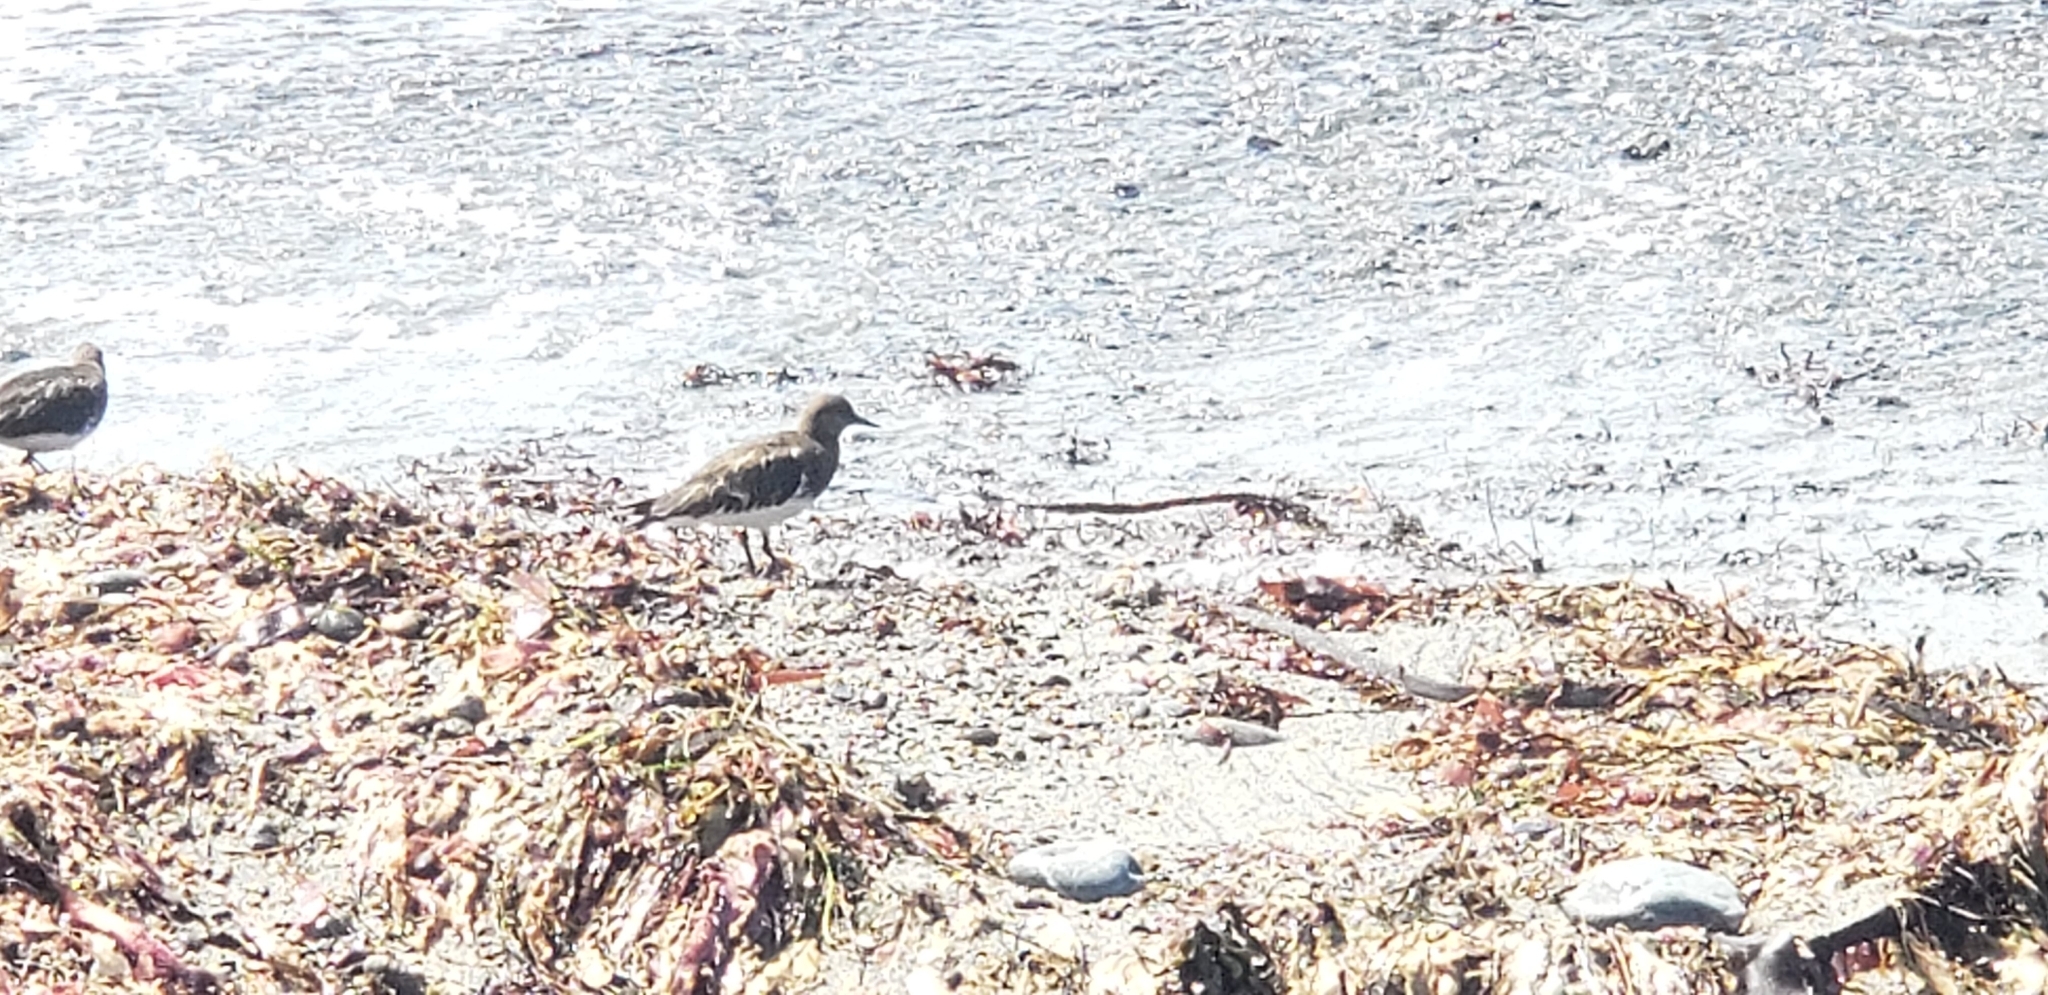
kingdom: Animalia
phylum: Chordata
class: Aves
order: Charadriiformes
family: Scolopacidae
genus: Arenaria
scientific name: Arenaria melanocephala
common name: Black turnstone
